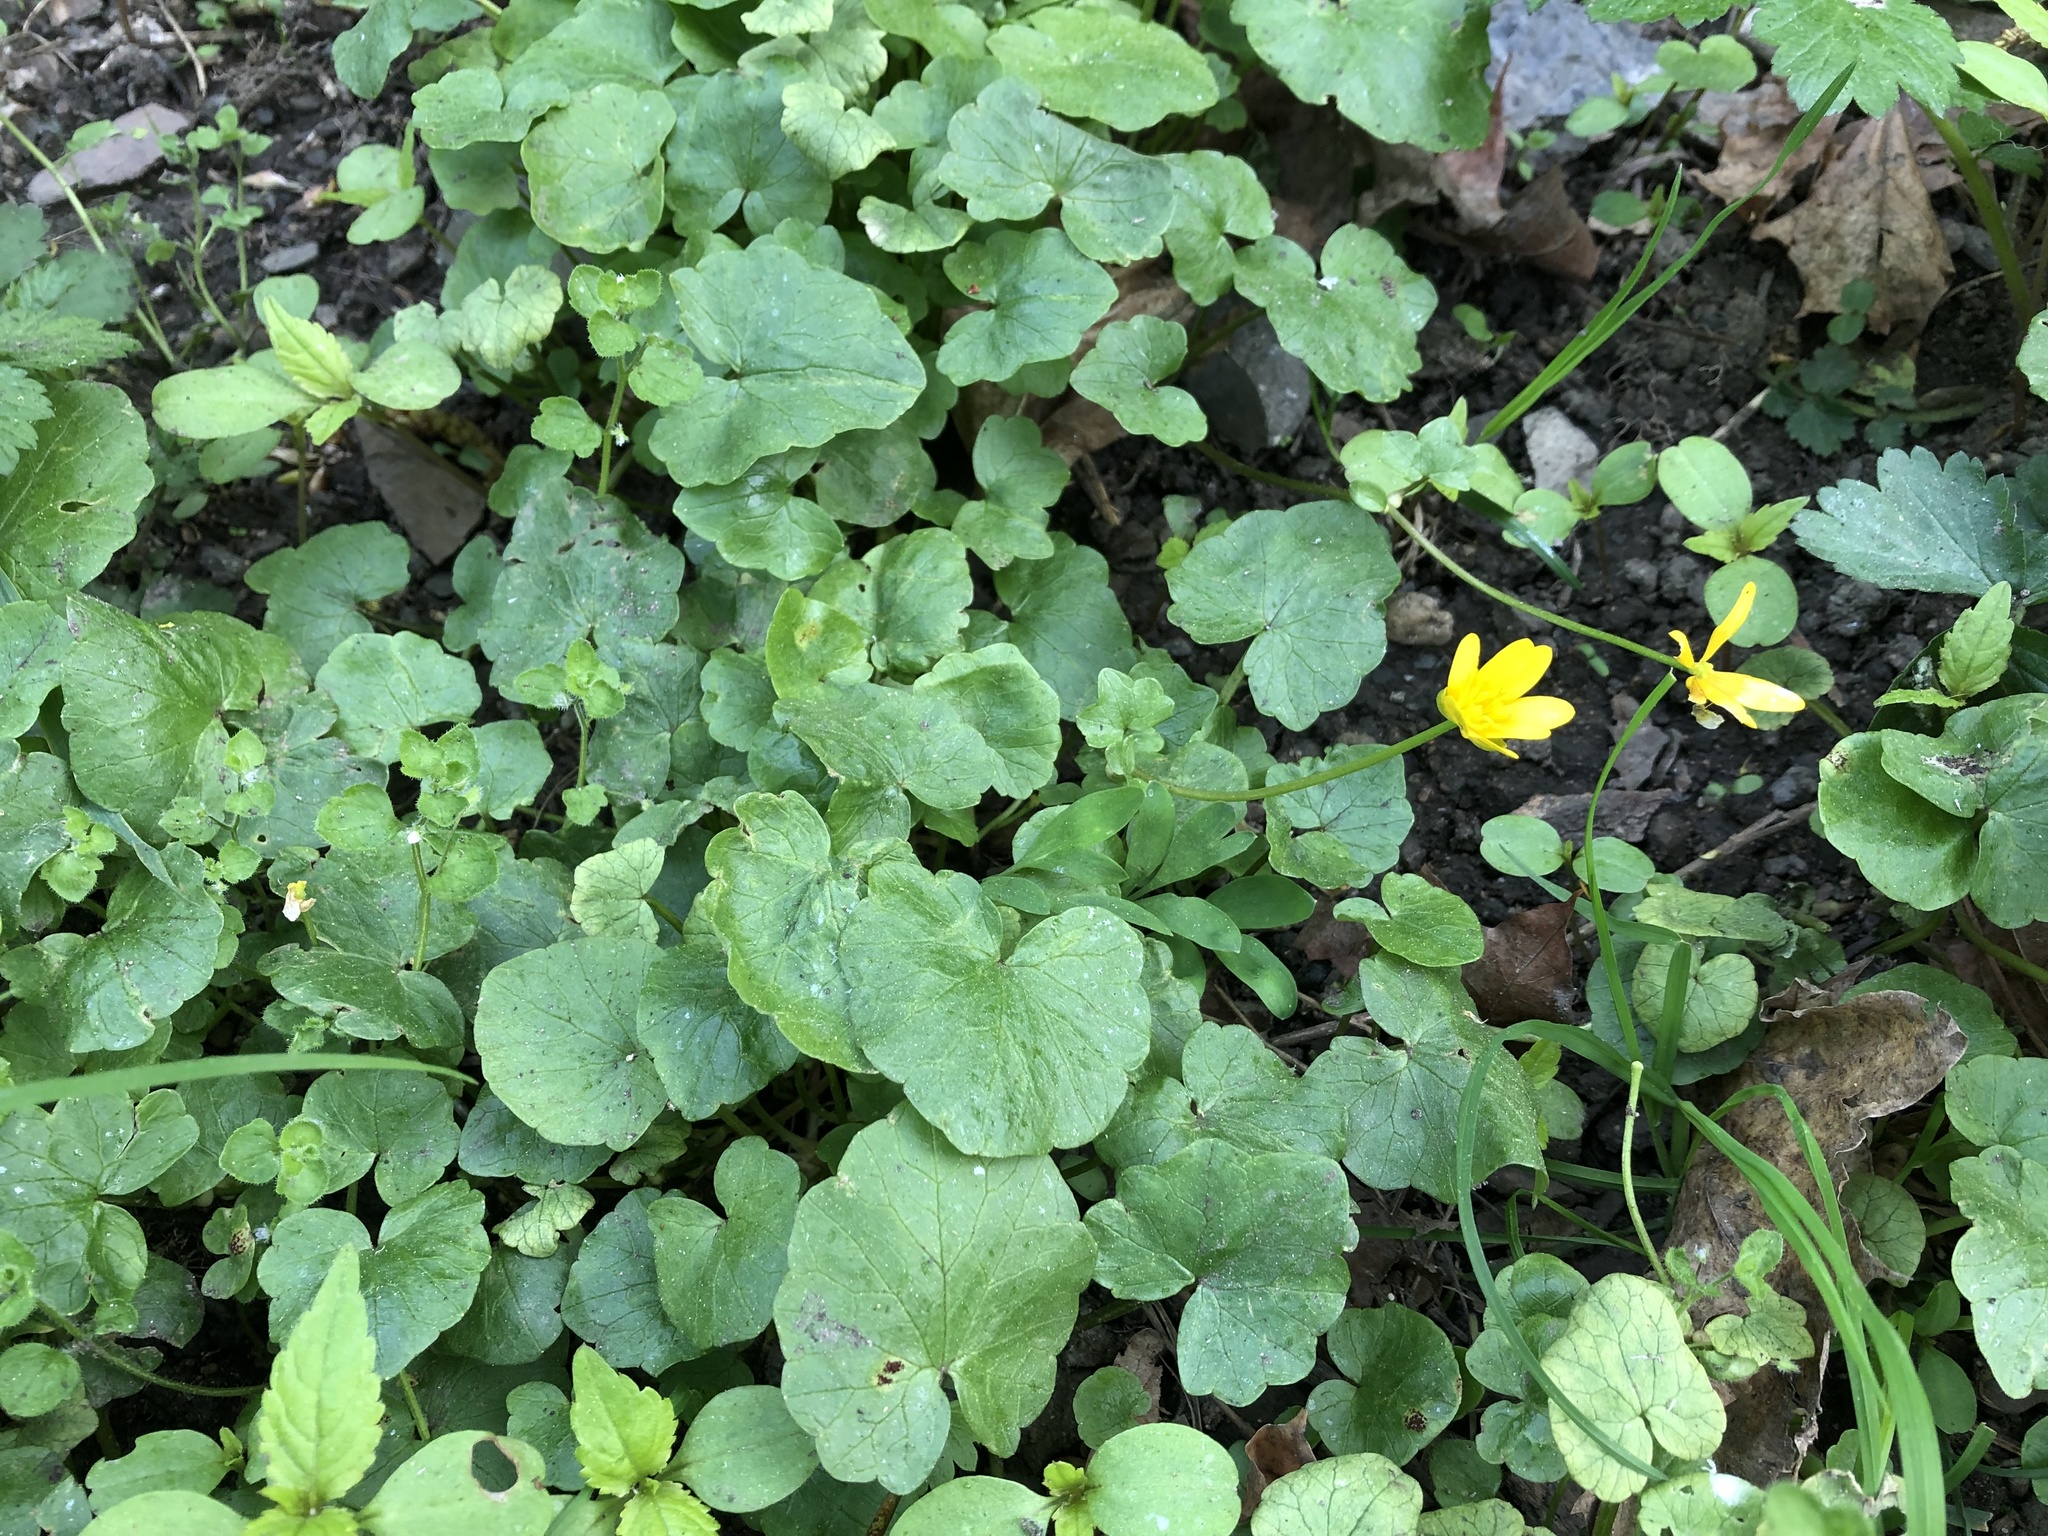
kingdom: Plantae
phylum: Tracheophyta
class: Magnoliopsida
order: Ranunculales
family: Ranunculaceae
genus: Ficaria
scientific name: Ficaria verna
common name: Lesser celandine
